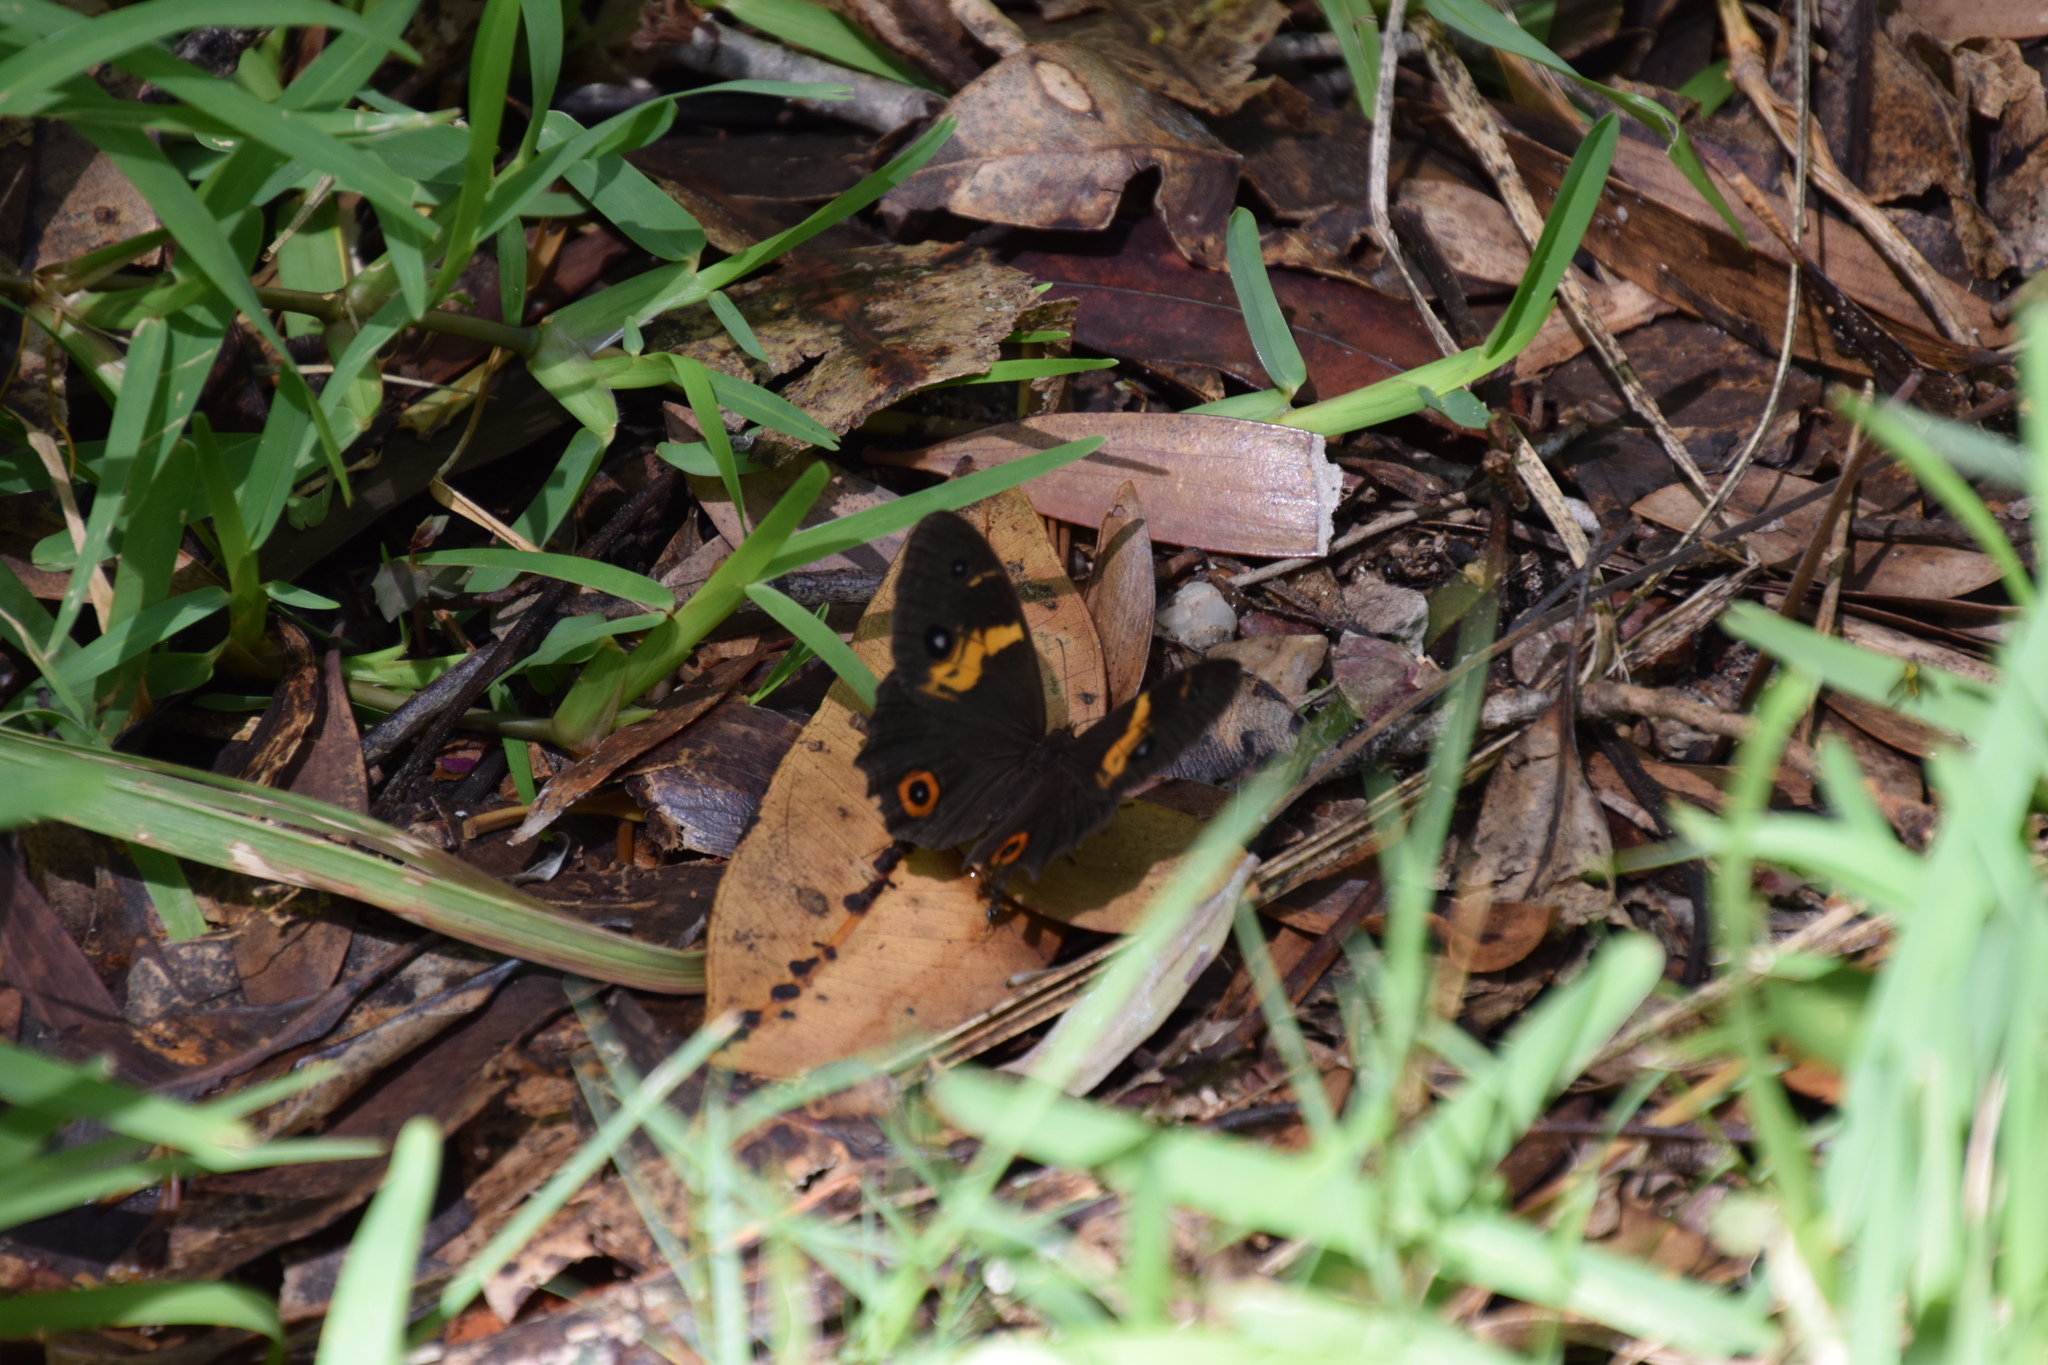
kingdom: Animalia
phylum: Arthropoda
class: Insecta
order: Lepidoptera
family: Nymphalidae
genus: Tisiphone
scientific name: Tisiphone abeona
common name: Swordgrass brown
